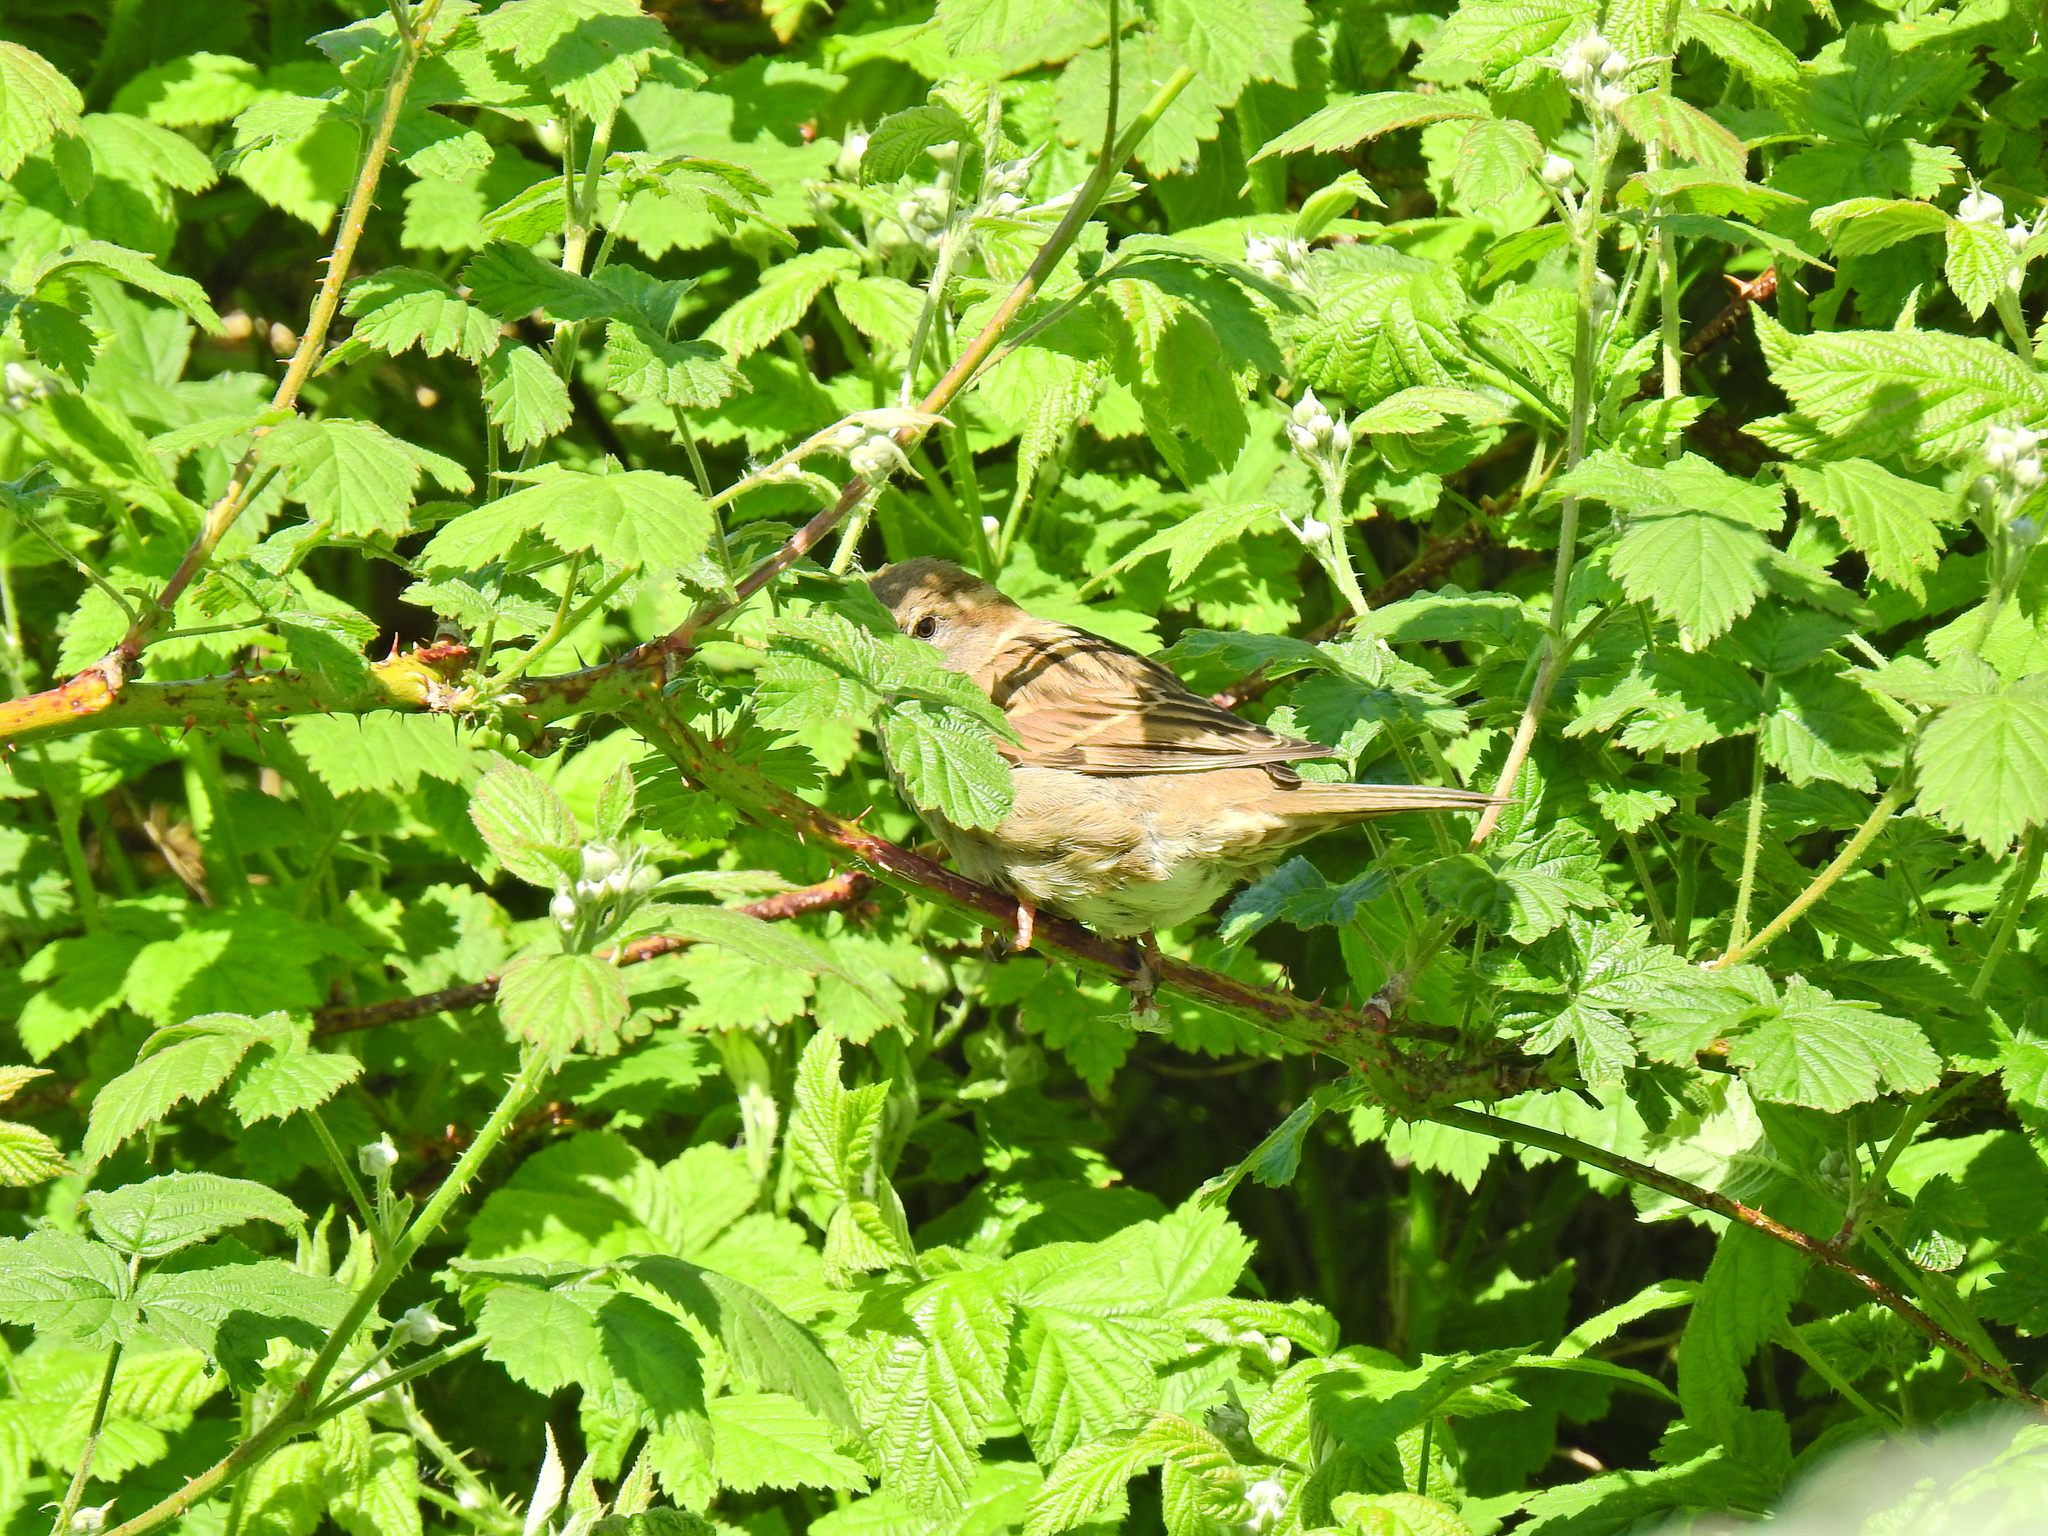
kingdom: Animalia
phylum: Chordata
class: Aves
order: Passeriformes
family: Passeridae
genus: Passer
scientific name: Passer domesticus
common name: House sparrow
